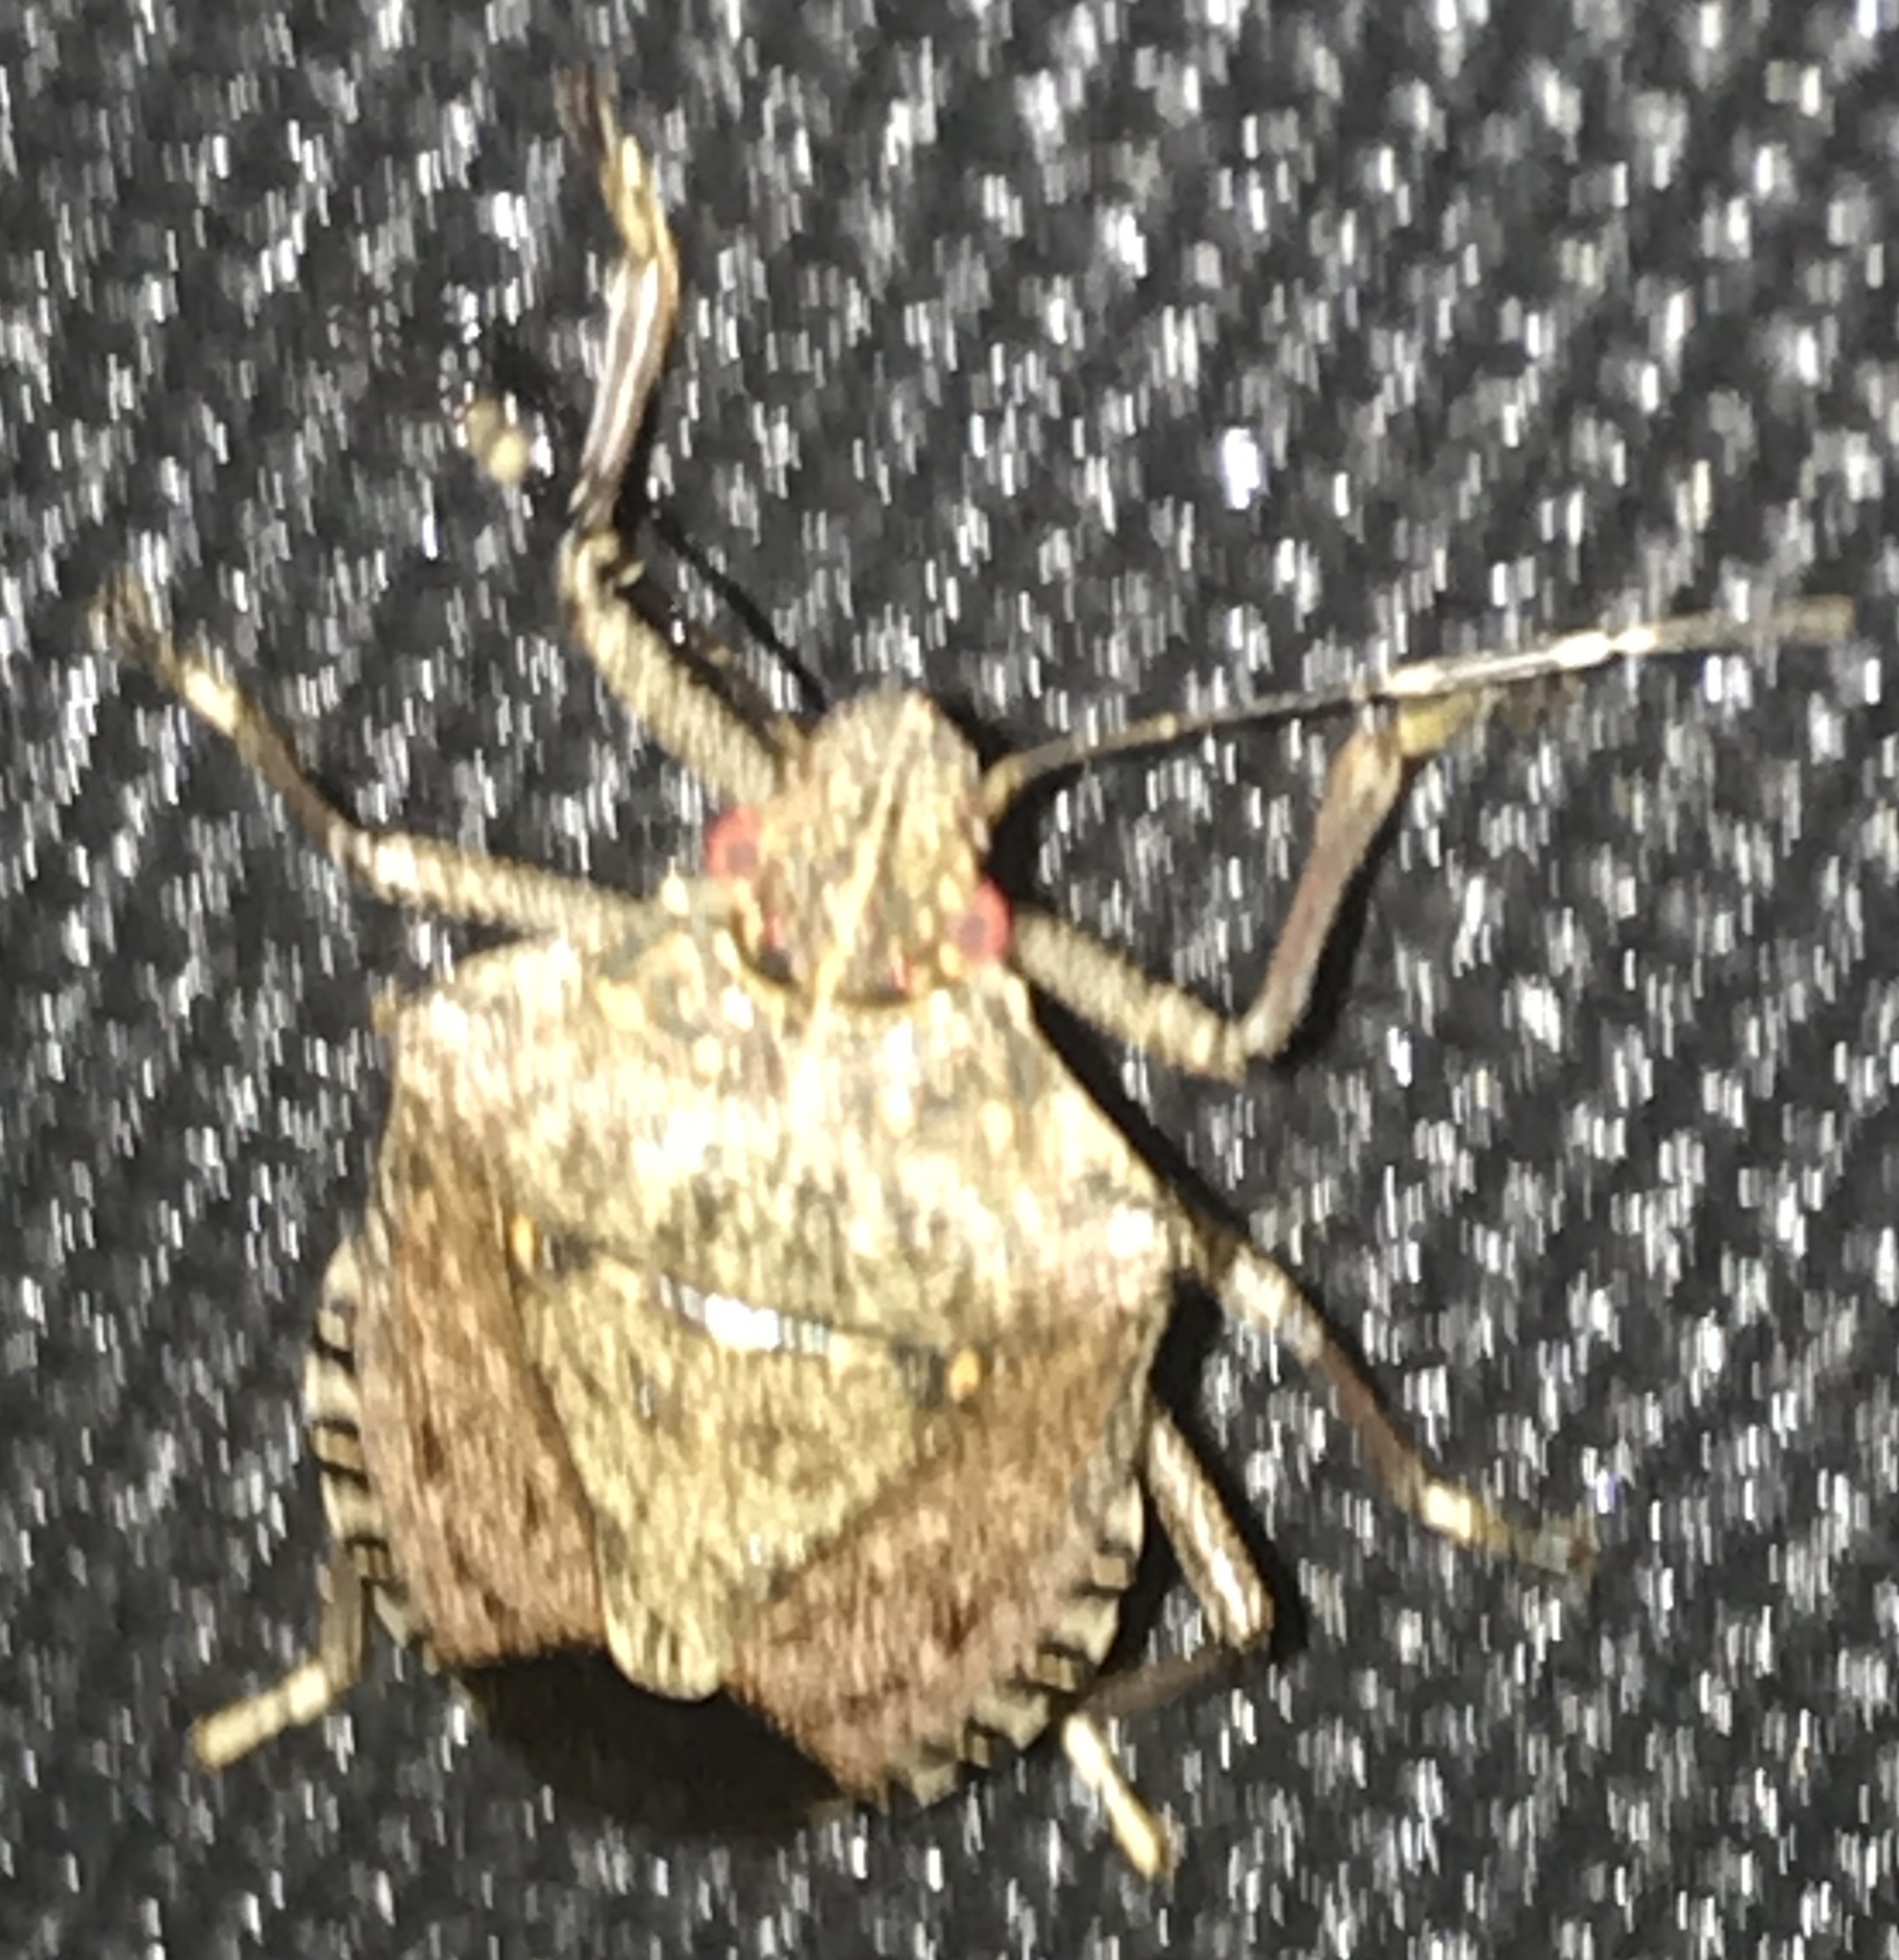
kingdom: Animalia
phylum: Arthropoda
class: Insecta
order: Hemiptera
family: Pentatomidae
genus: Halyomorpha
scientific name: Halyomorpha halys
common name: Brown marmorated stink bug
